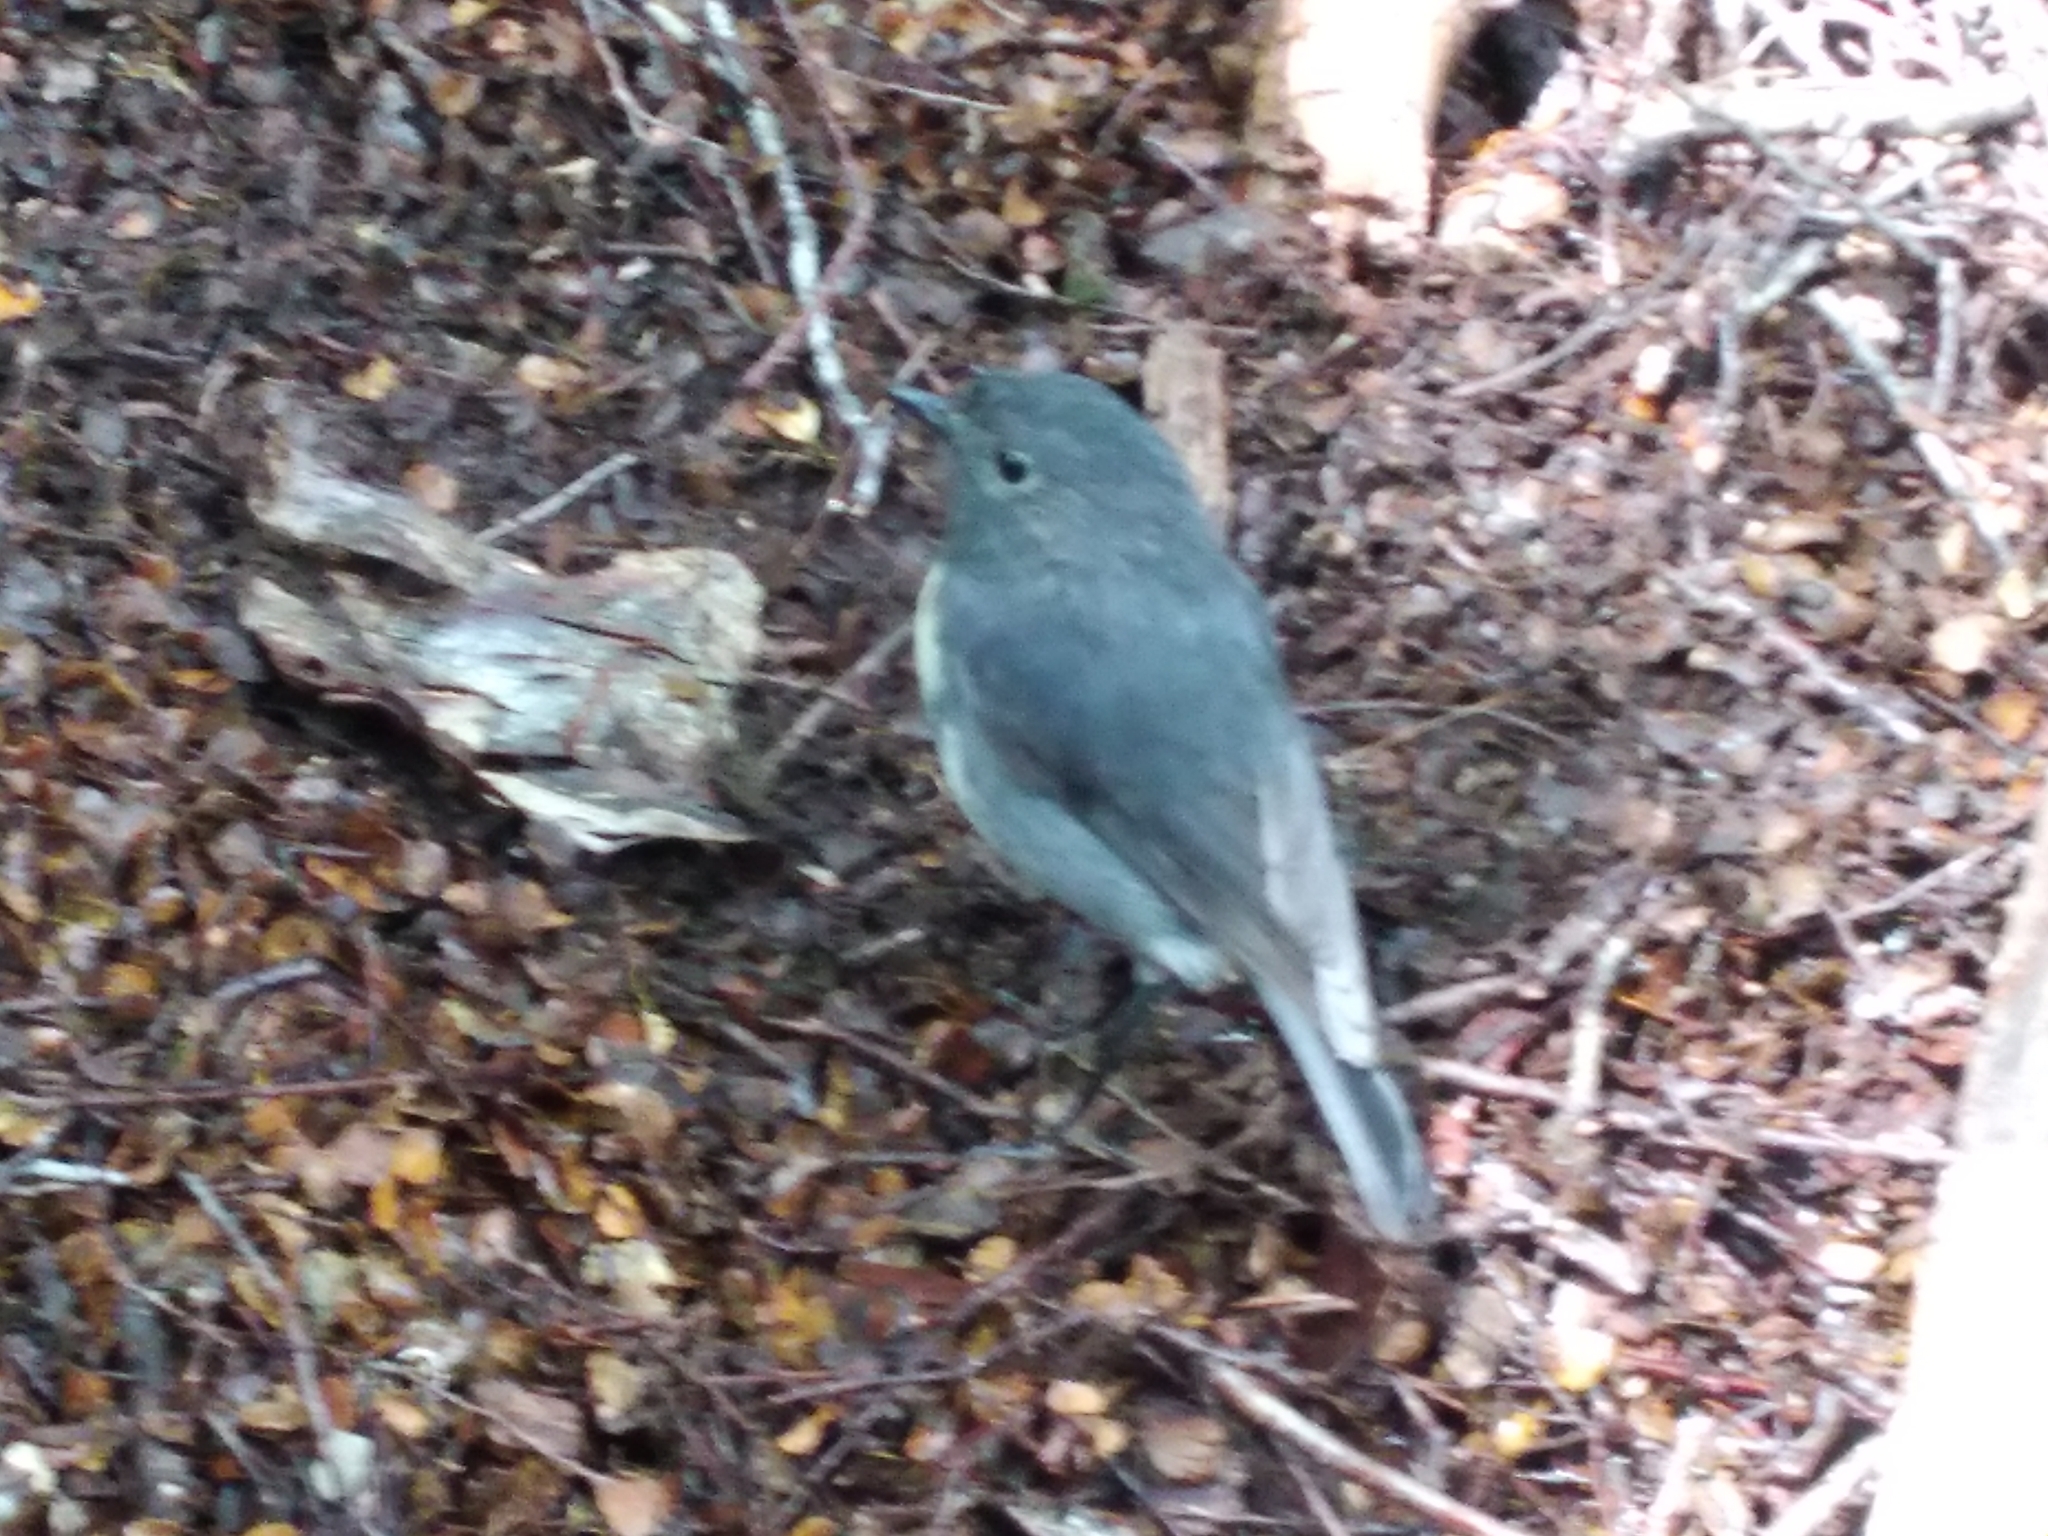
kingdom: Animalia
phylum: Chordata
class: Aves
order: Passeriformes
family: Petroicidae
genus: Petroica
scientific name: Petroica australis
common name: New zealand robin
